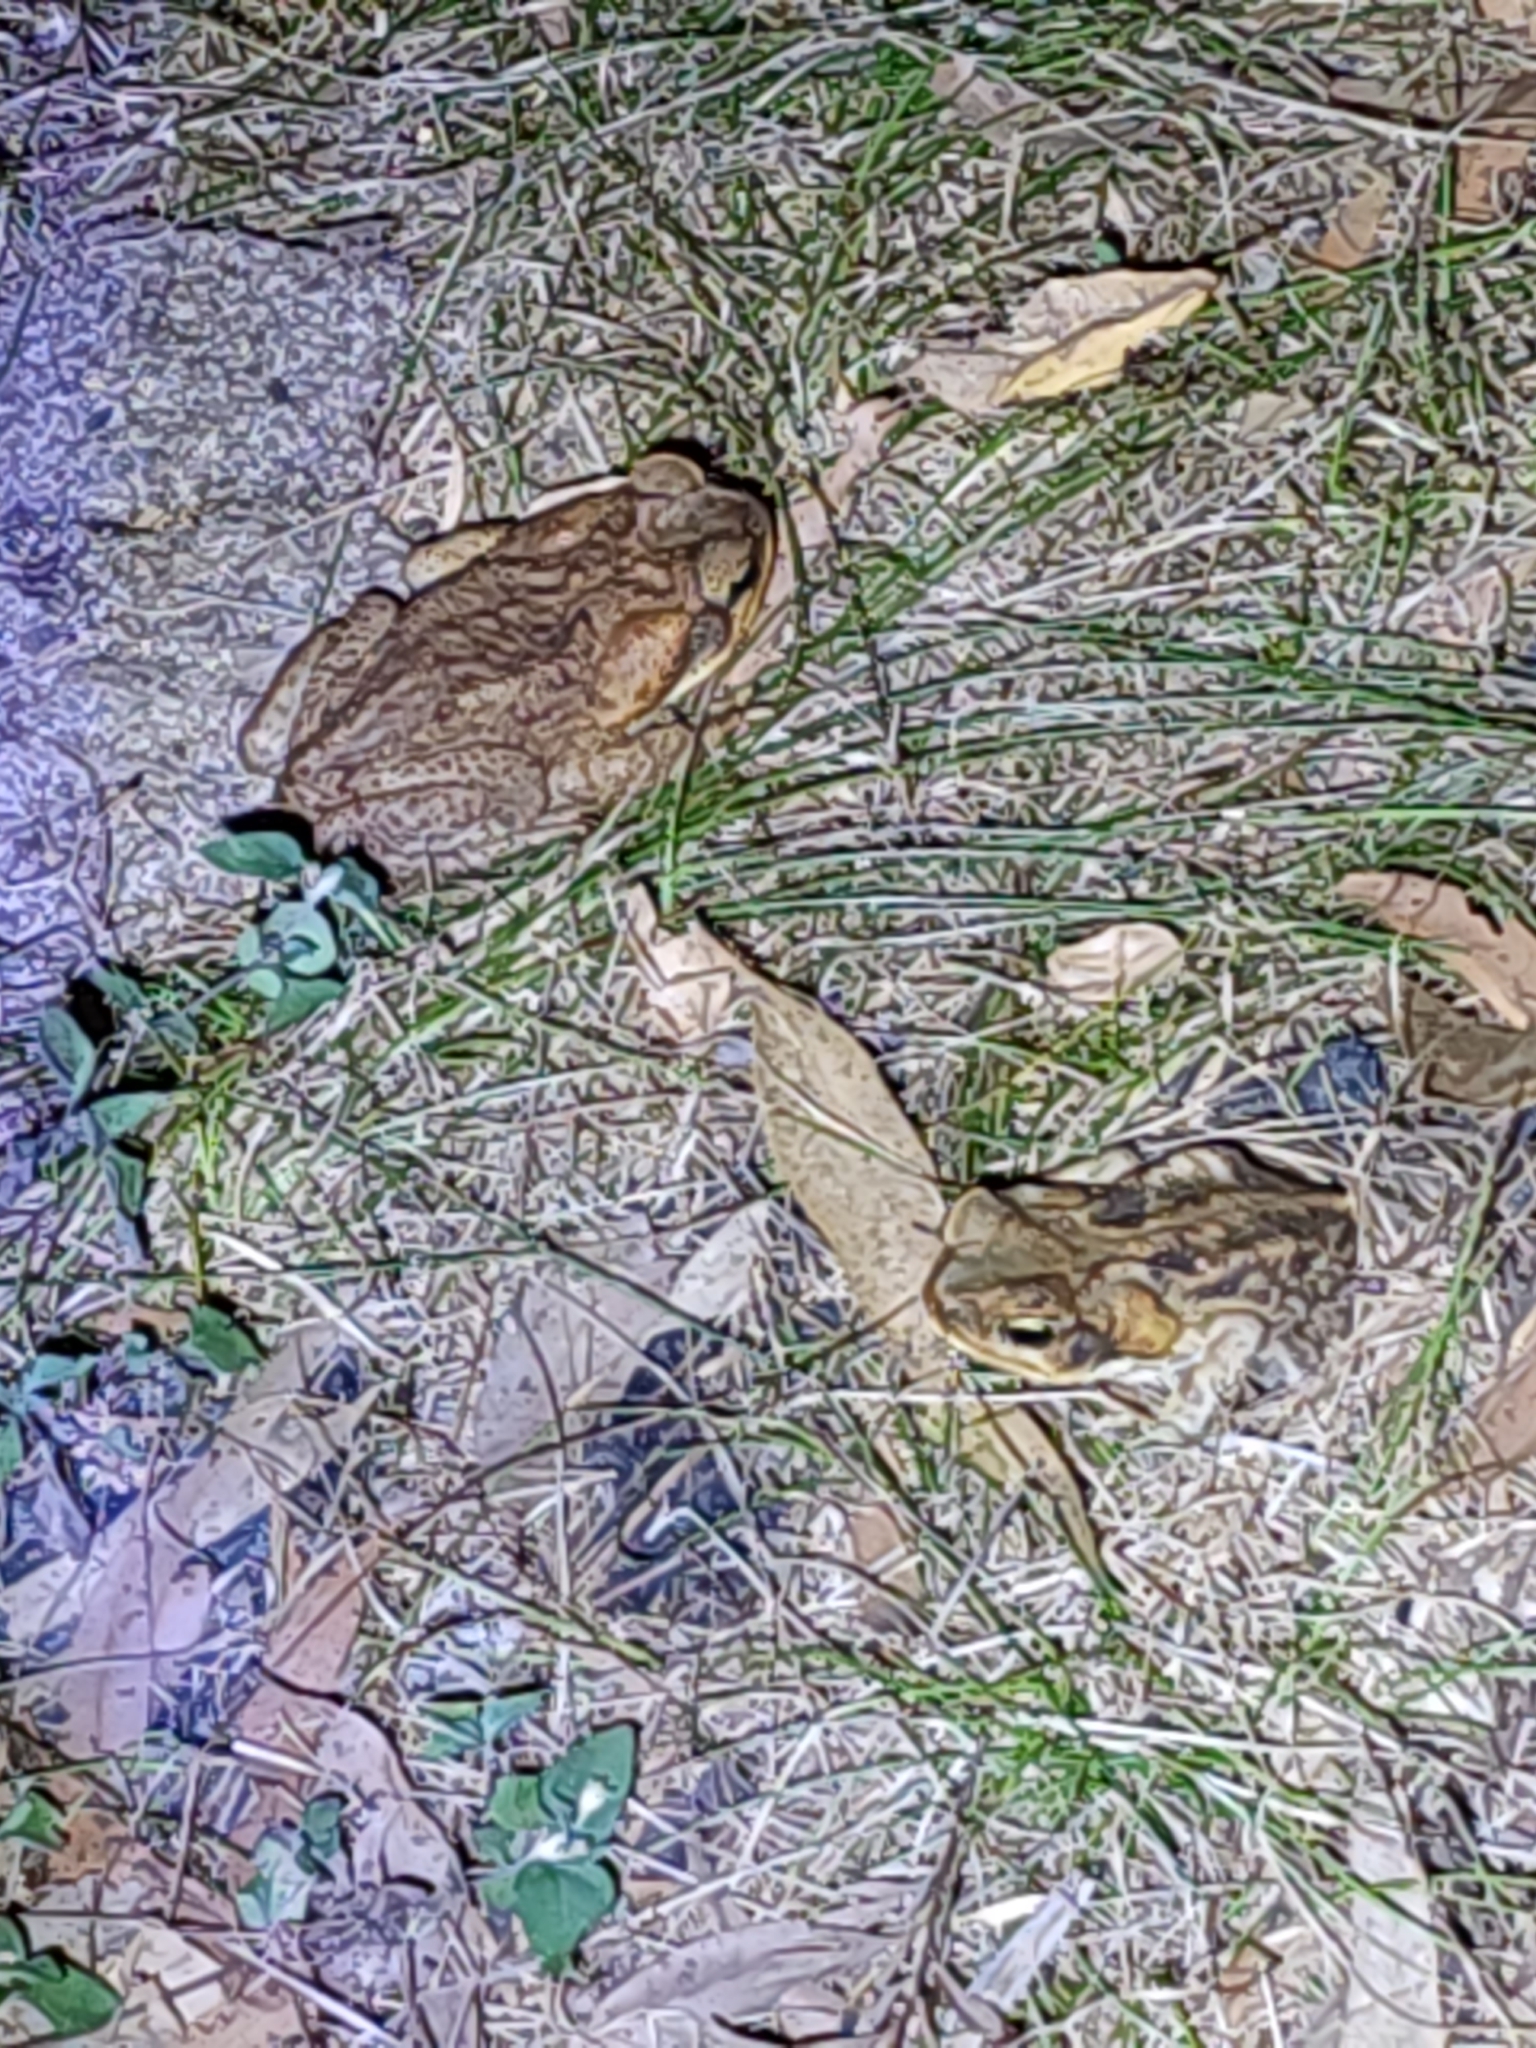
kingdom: Animalia
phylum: Chordata
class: Amphibia
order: Anura
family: Bufonidae
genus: Rhinella
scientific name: Rhinella marina
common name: Cane toad
